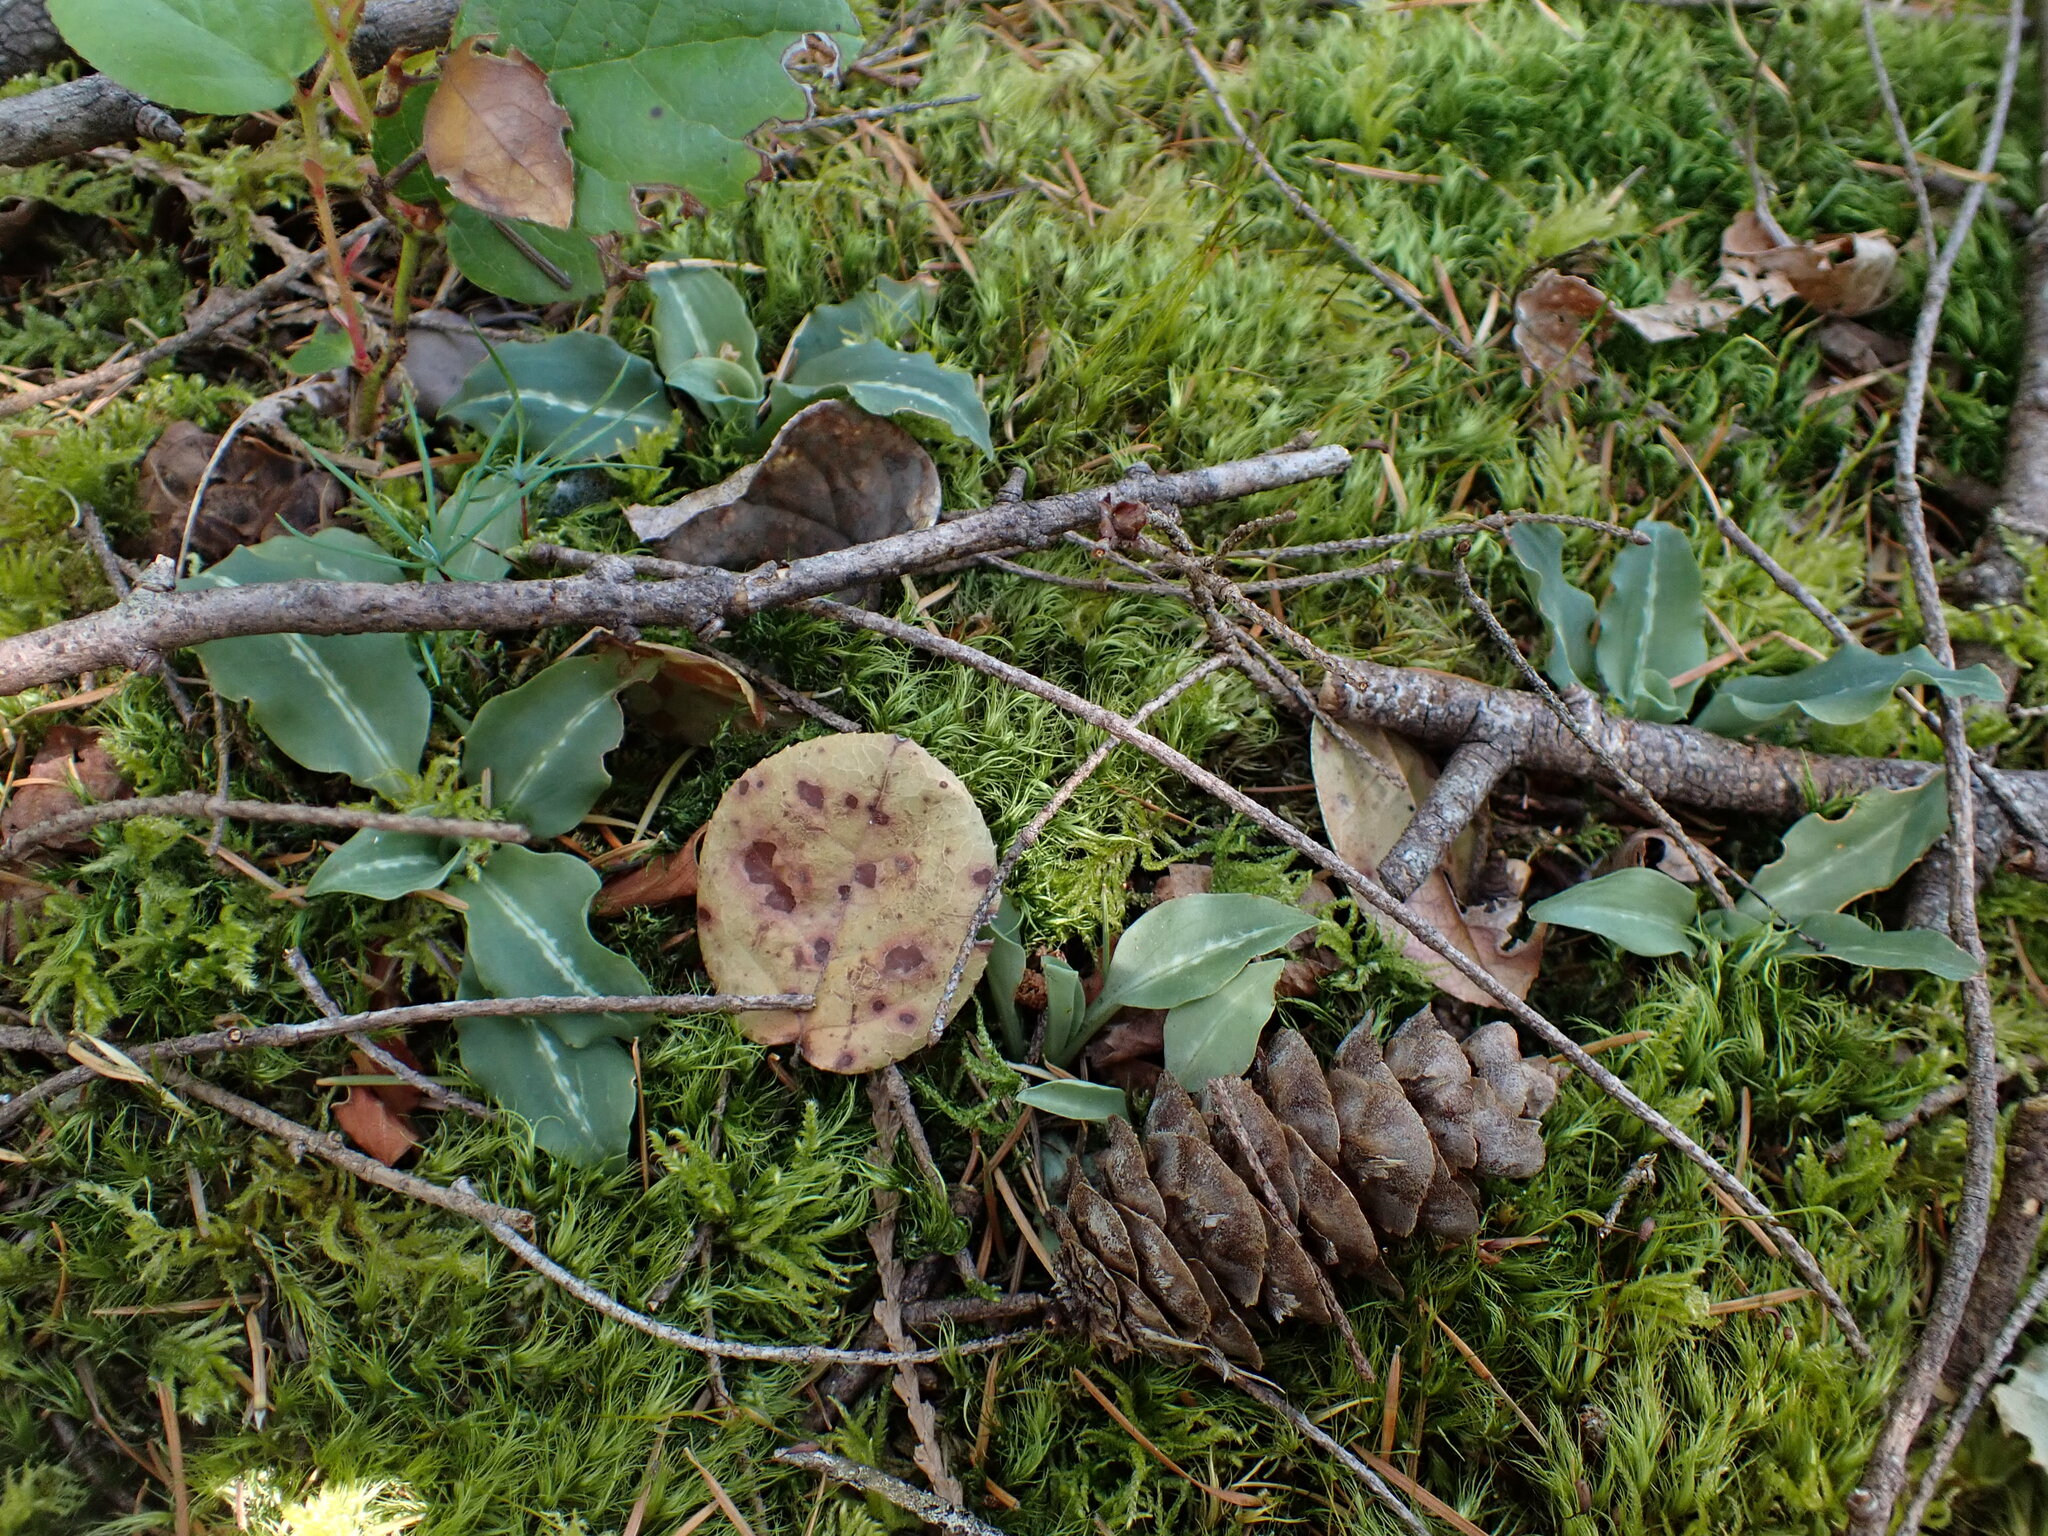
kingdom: Plantae
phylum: Tracheophyta
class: Liliopsida
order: Asparagales
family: Orchidaceae
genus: Goodyera
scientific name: Goodyera oblongifolia
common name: Giant rattlesnake-plantain
